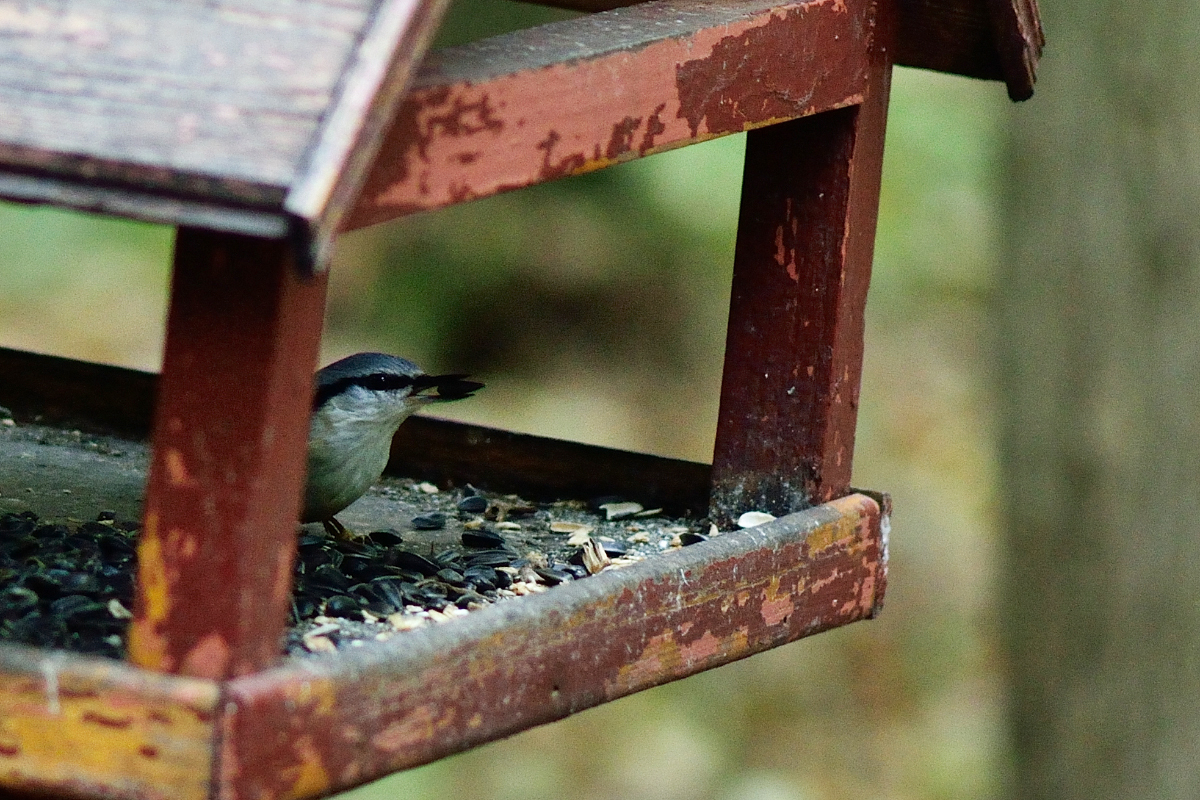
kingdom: Animalia
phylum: Chordata
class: Aves
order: Passeriformes
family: Sittidae
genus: Sitta
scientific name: Sitta europaea
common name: Eurasian nuthatch
